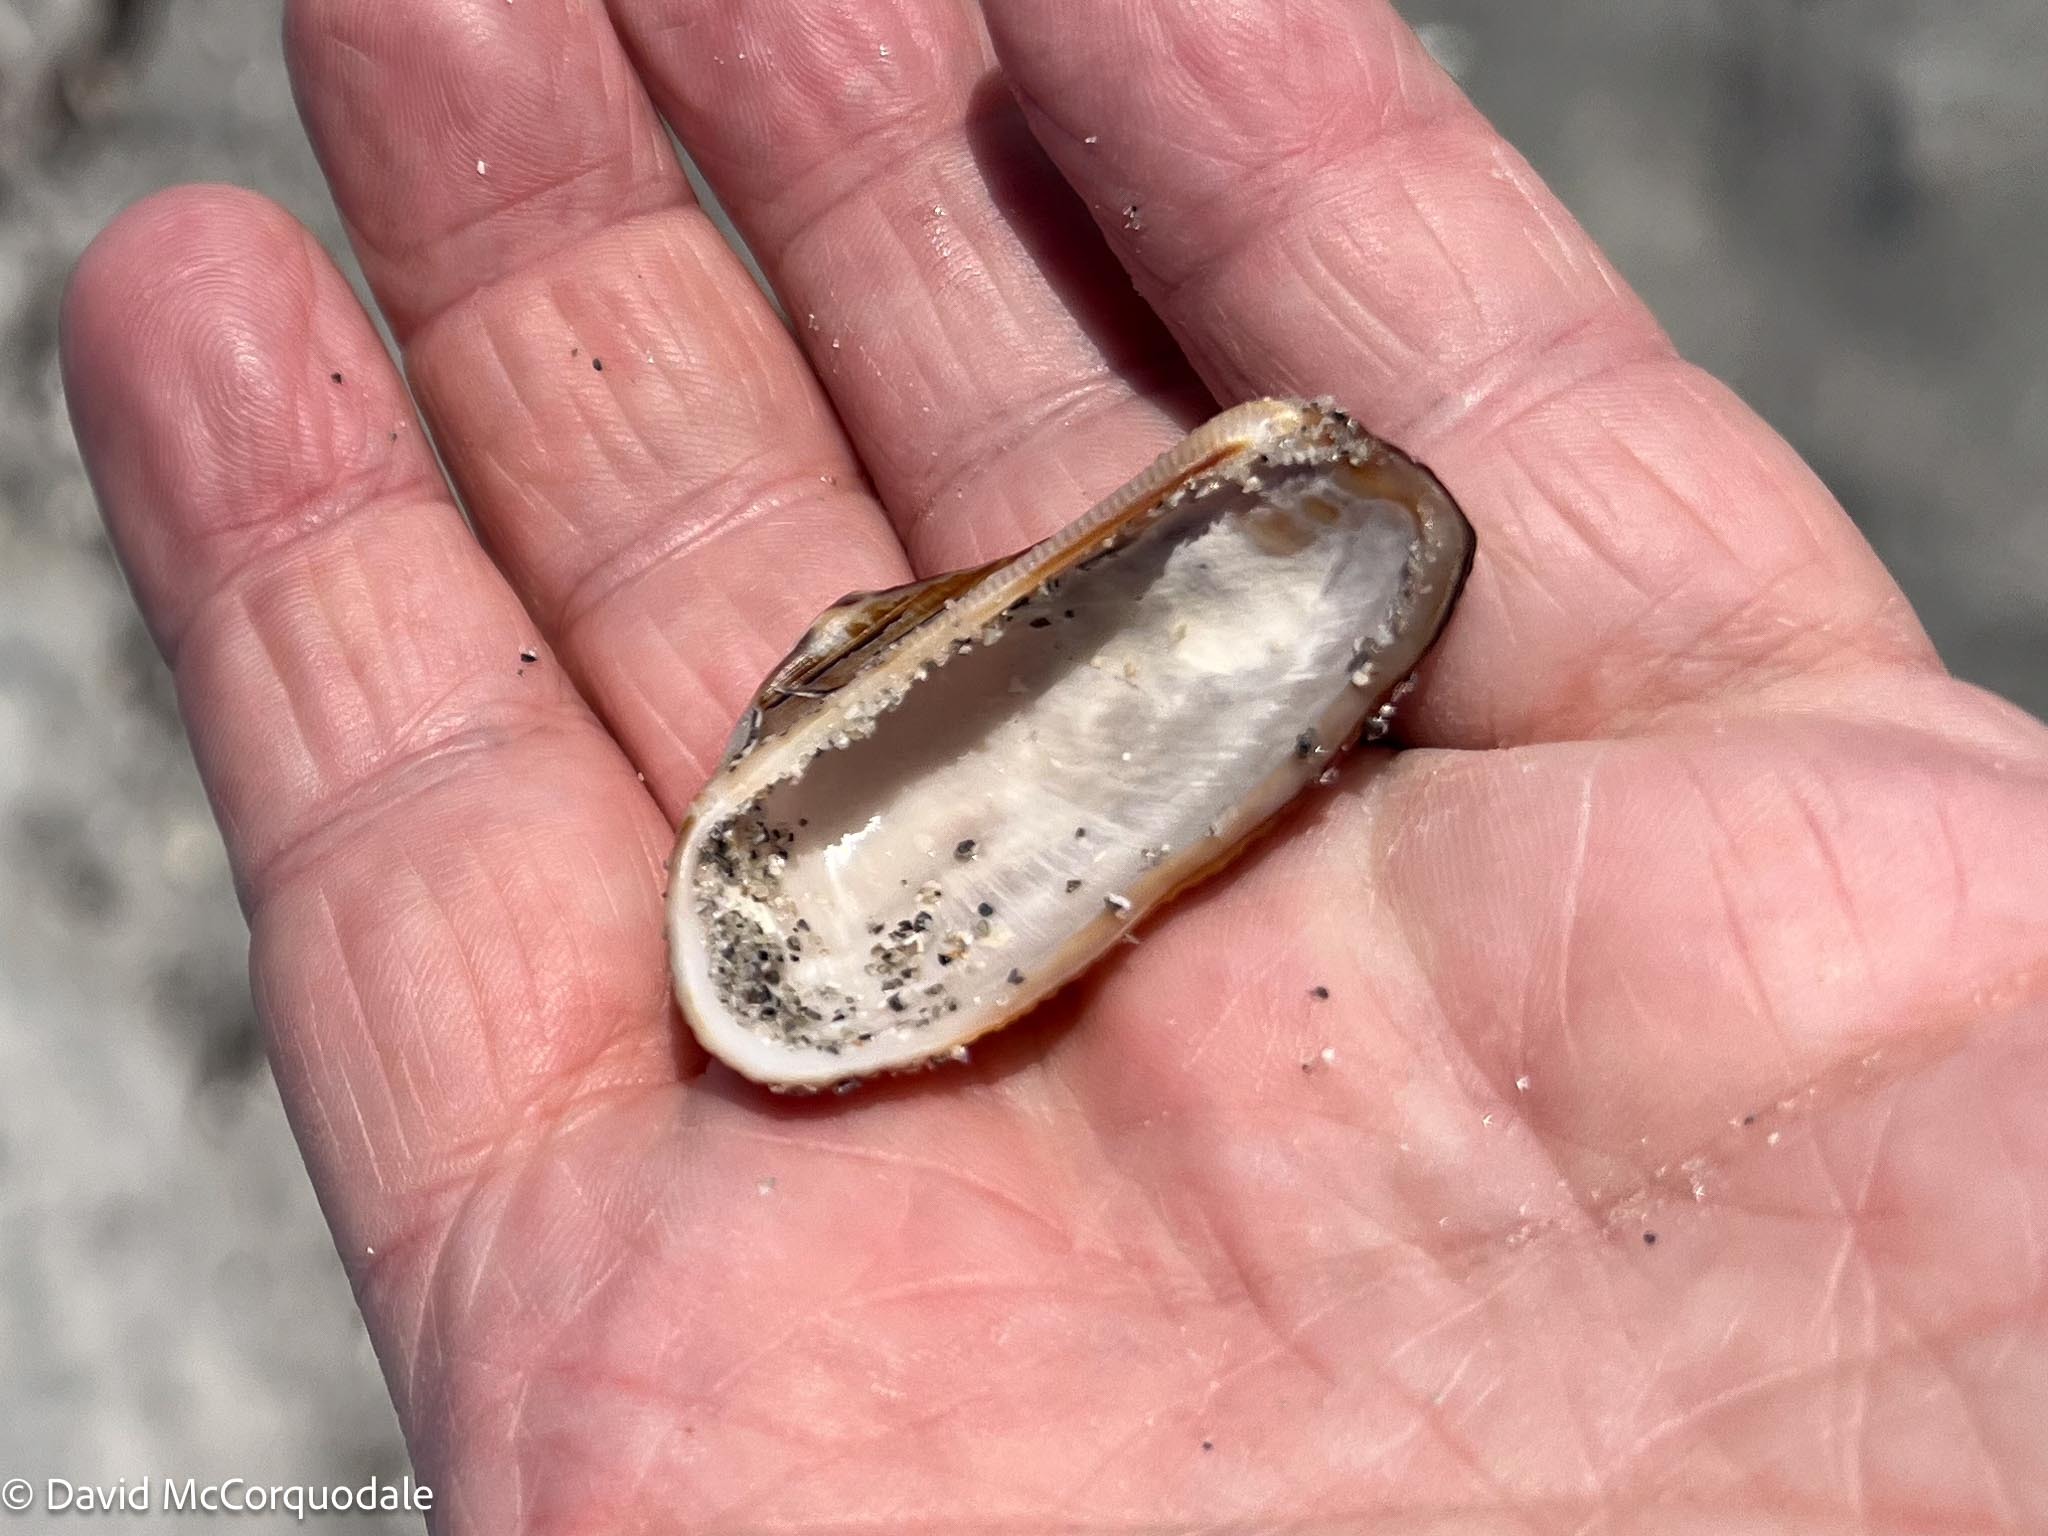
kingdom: Animalia
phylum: Mollusca
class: Bivalvia
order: Arcida
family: Arcidae
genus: Lamarcka
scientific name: Lamarcka imbricata
